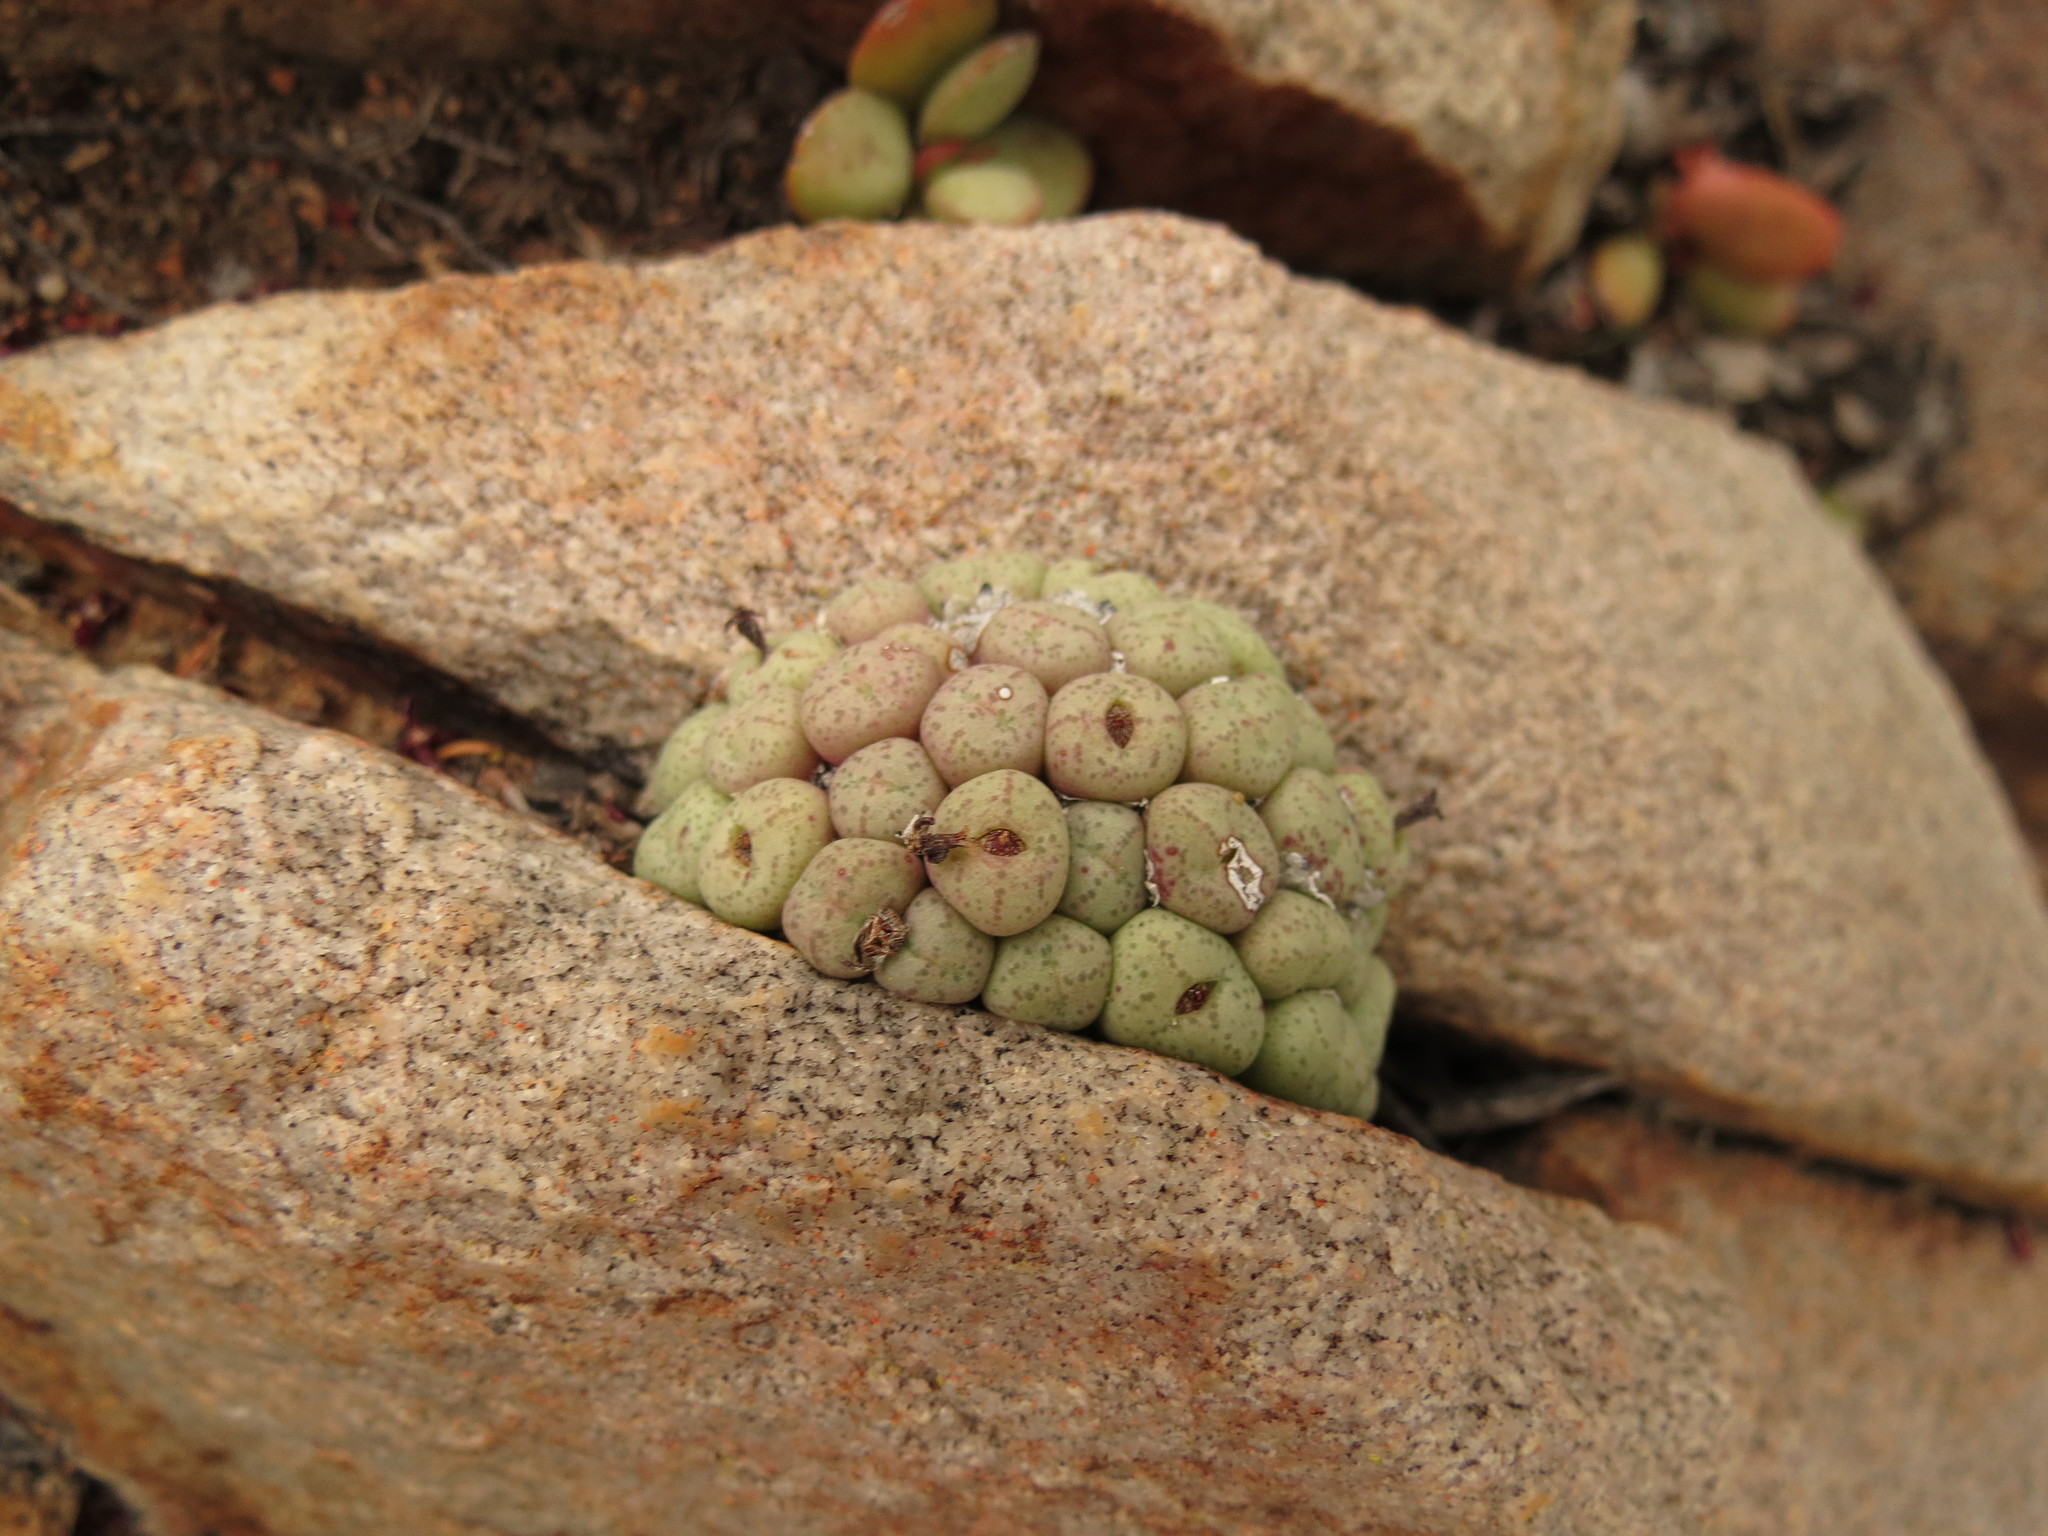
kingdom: Plantae
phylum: Tracheophyta
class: Magnoliopsida
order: Caryophyllales
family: Aizoaceae
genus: Conophytum
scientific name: Conophytum truncatum
